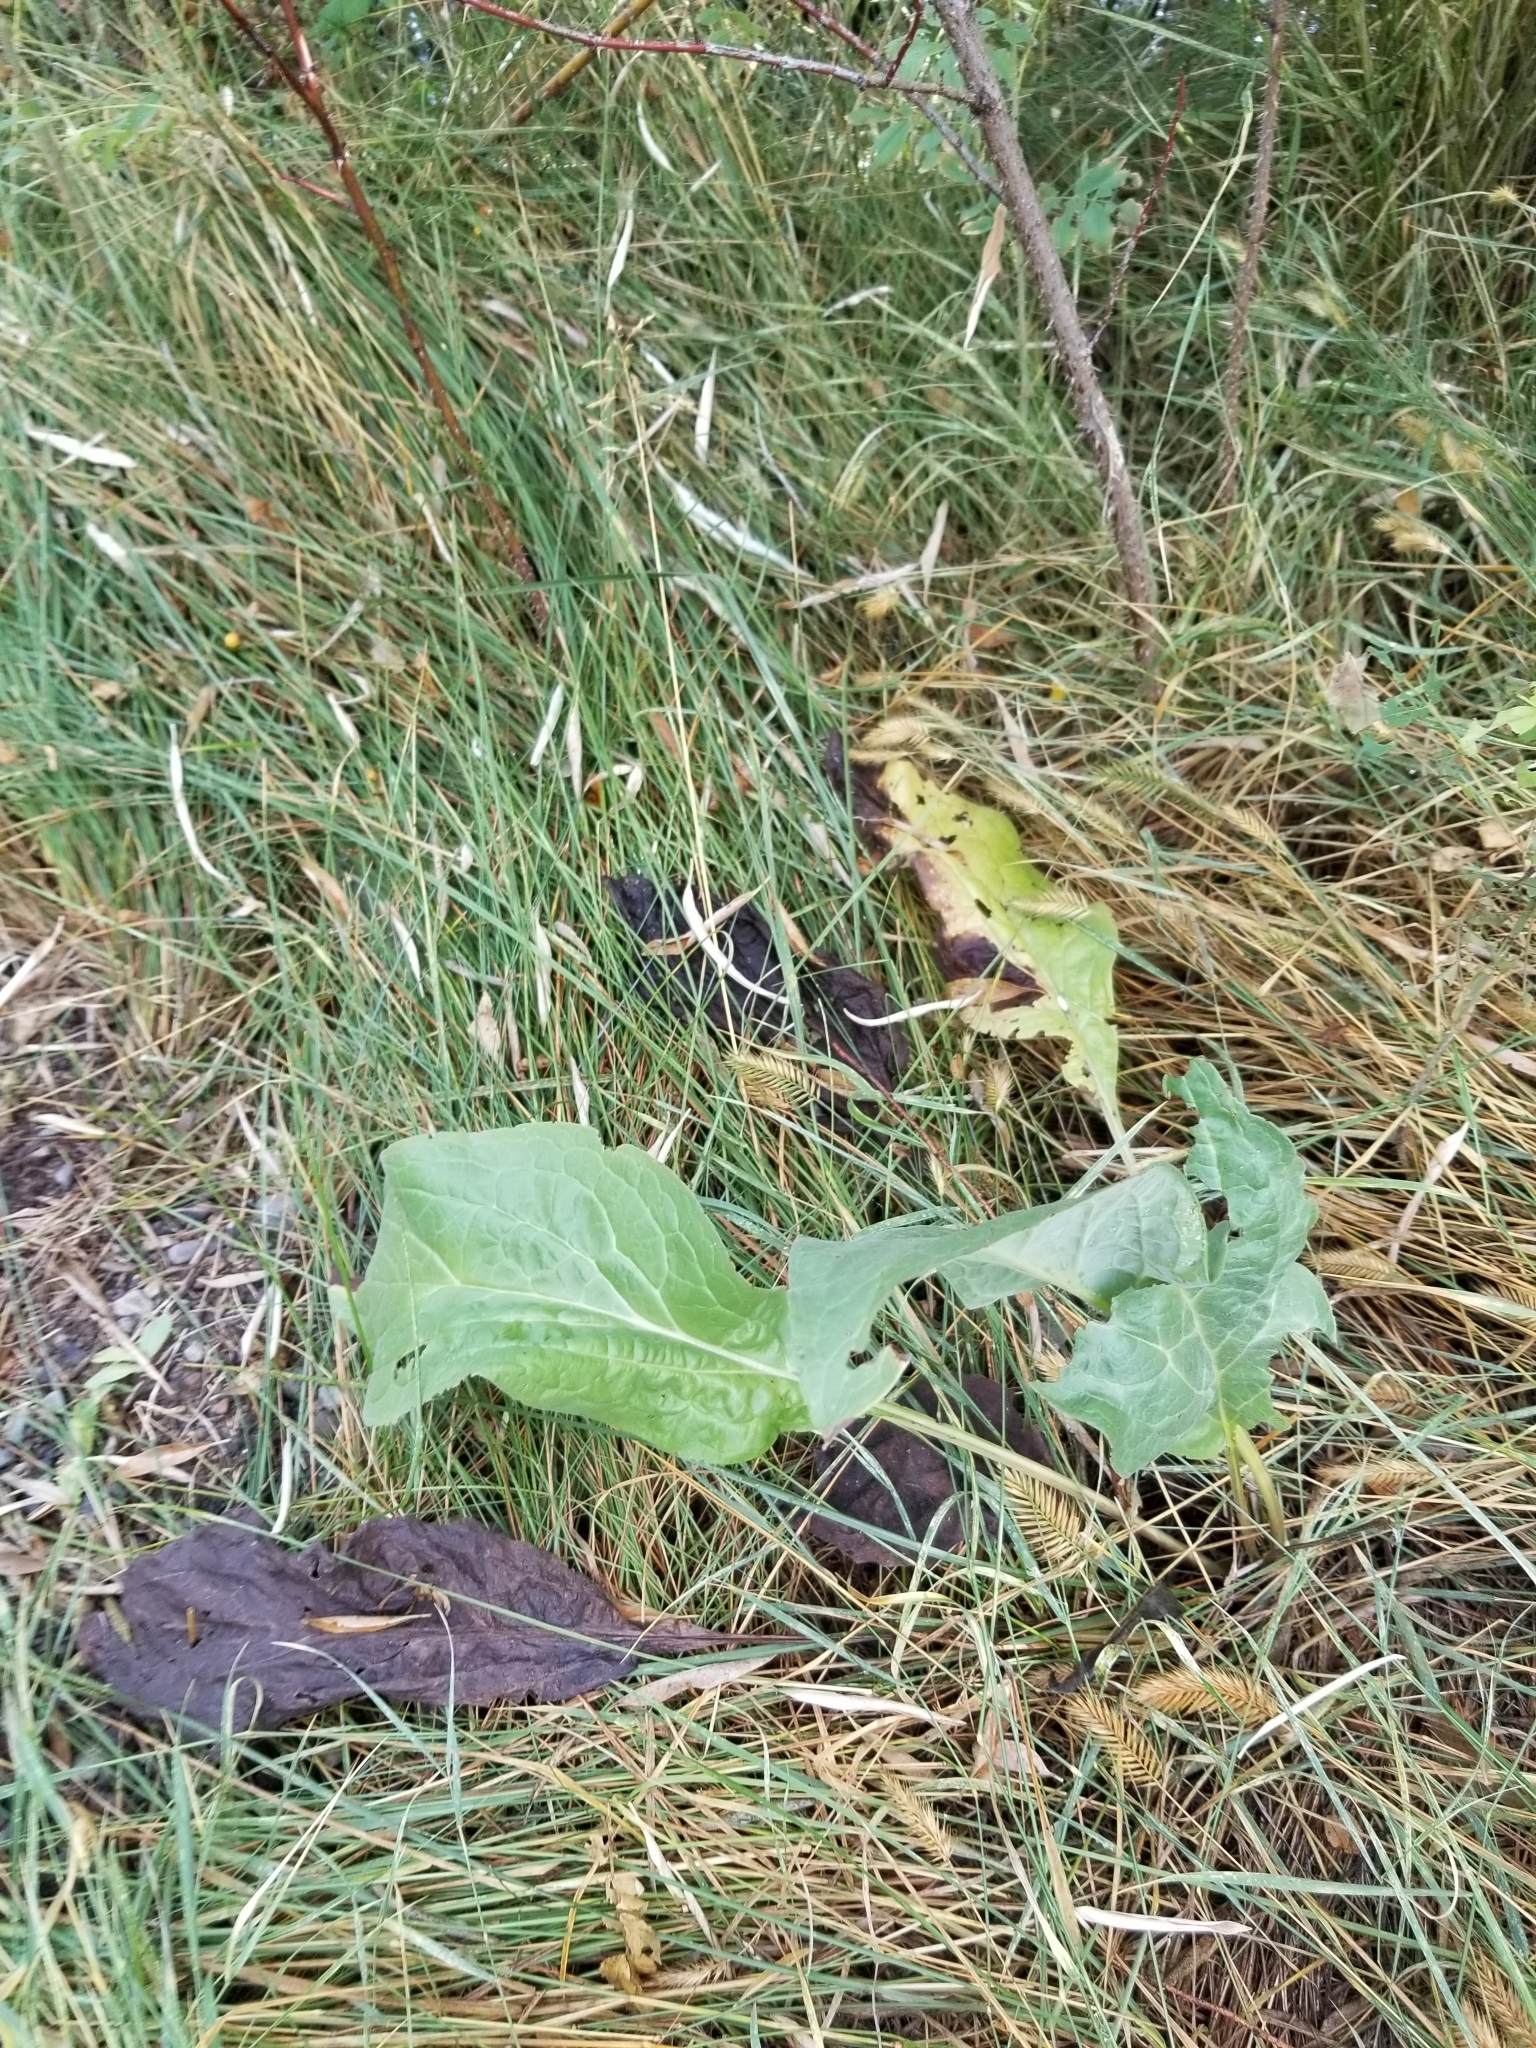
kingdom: Plantae
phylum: Tracheophyta
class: Magnoliopsida
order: Boraginales
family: Boraginaceae
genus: Cynoglossum
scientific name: Cynoglossum officinale
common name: Hound's-tongue
